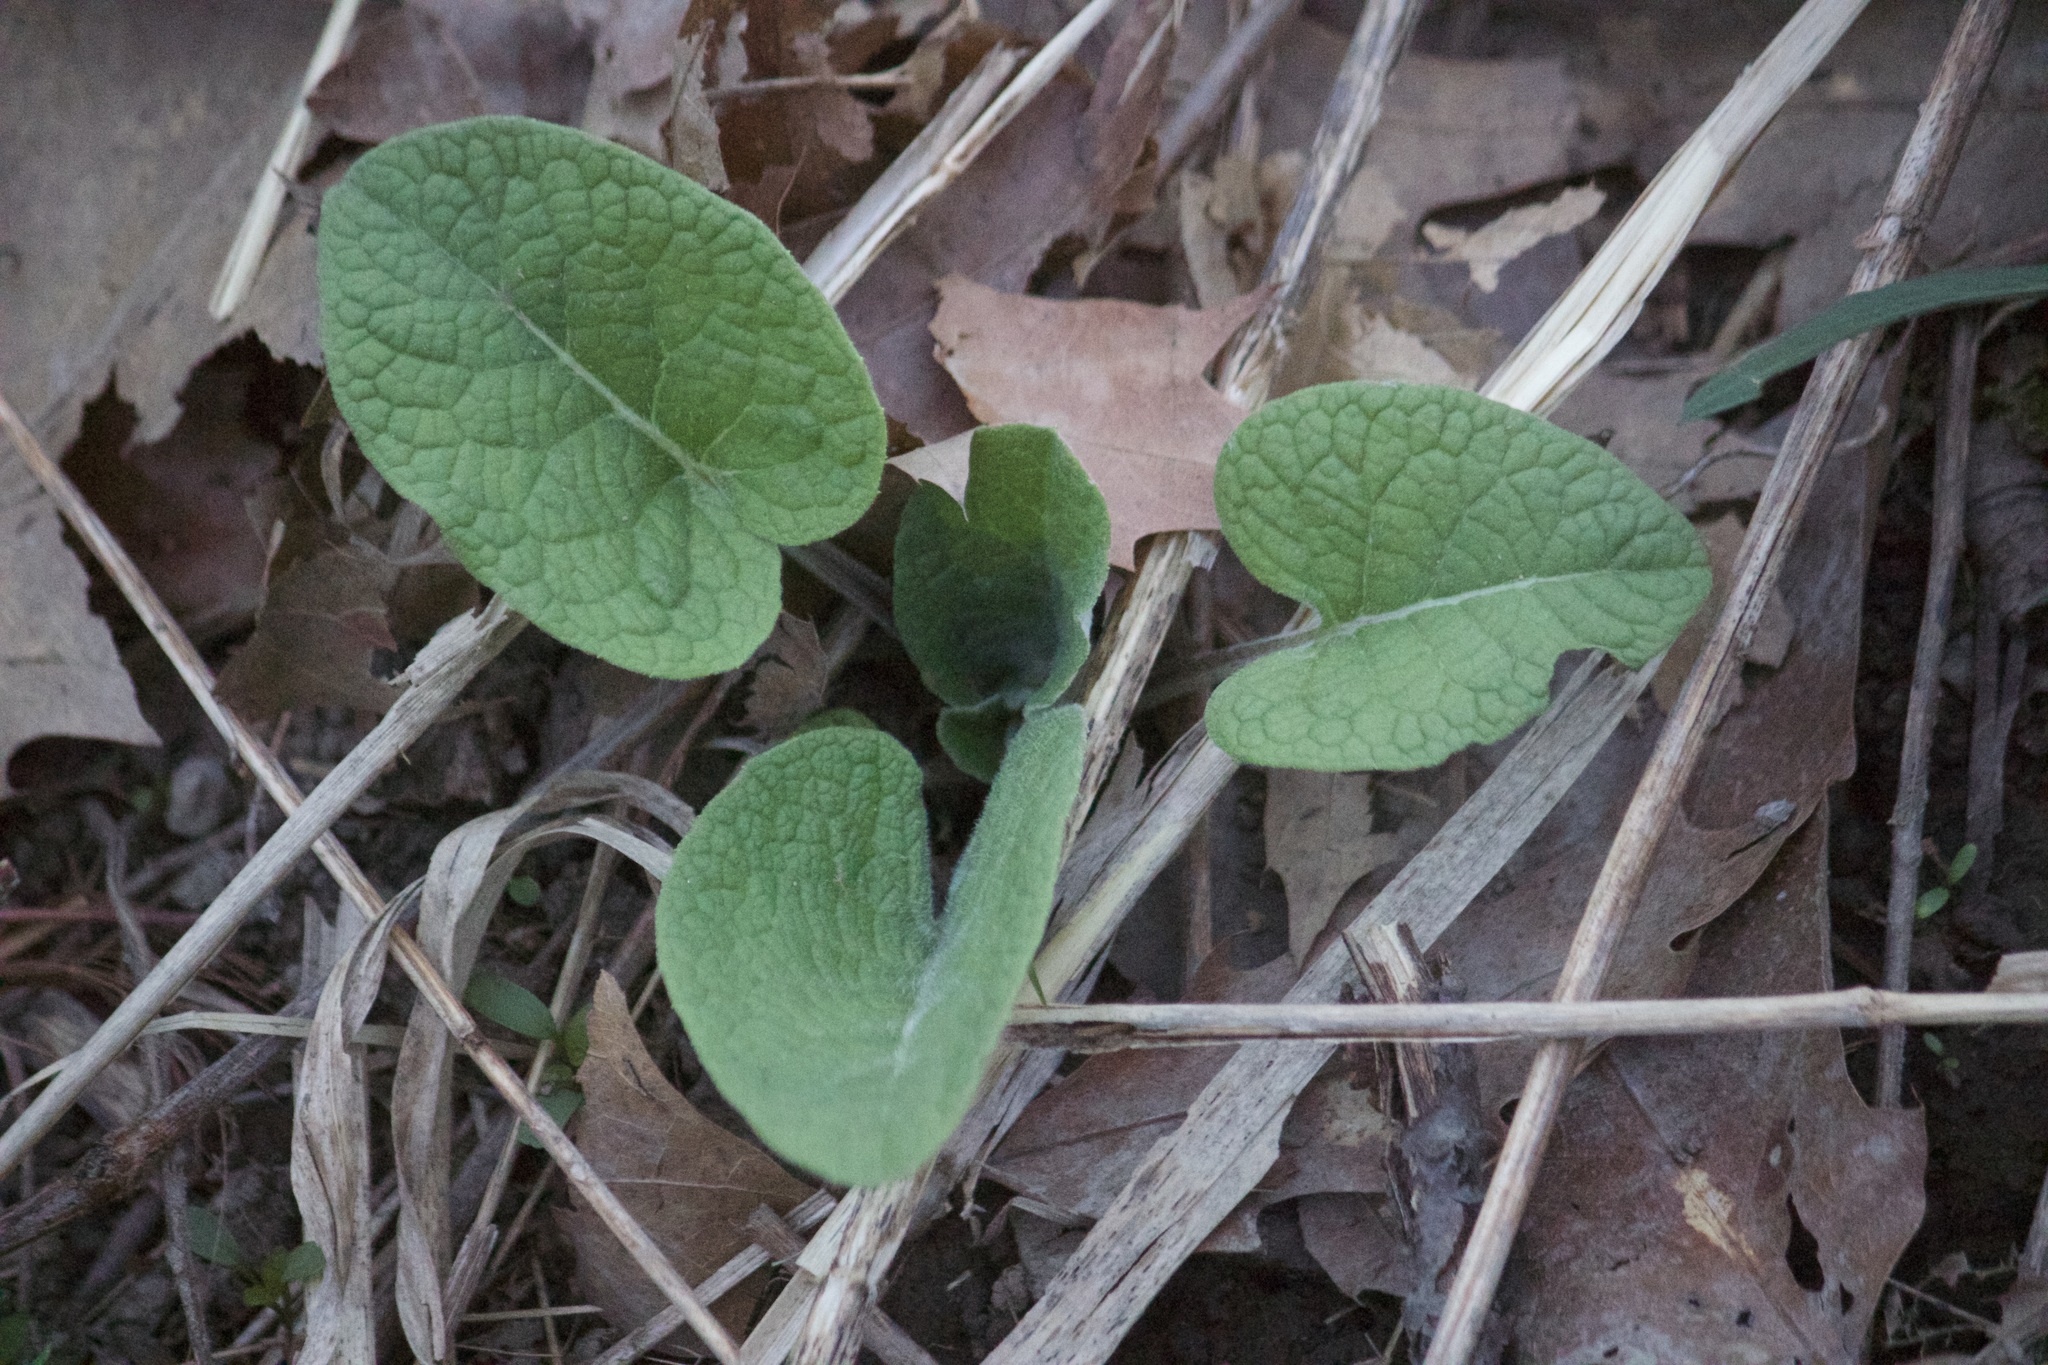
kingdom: Plantae
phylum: Tracheophyta
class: Magnoliopsida
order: Asterales
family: Asteraceae
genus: Arctium
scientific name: Arctium
